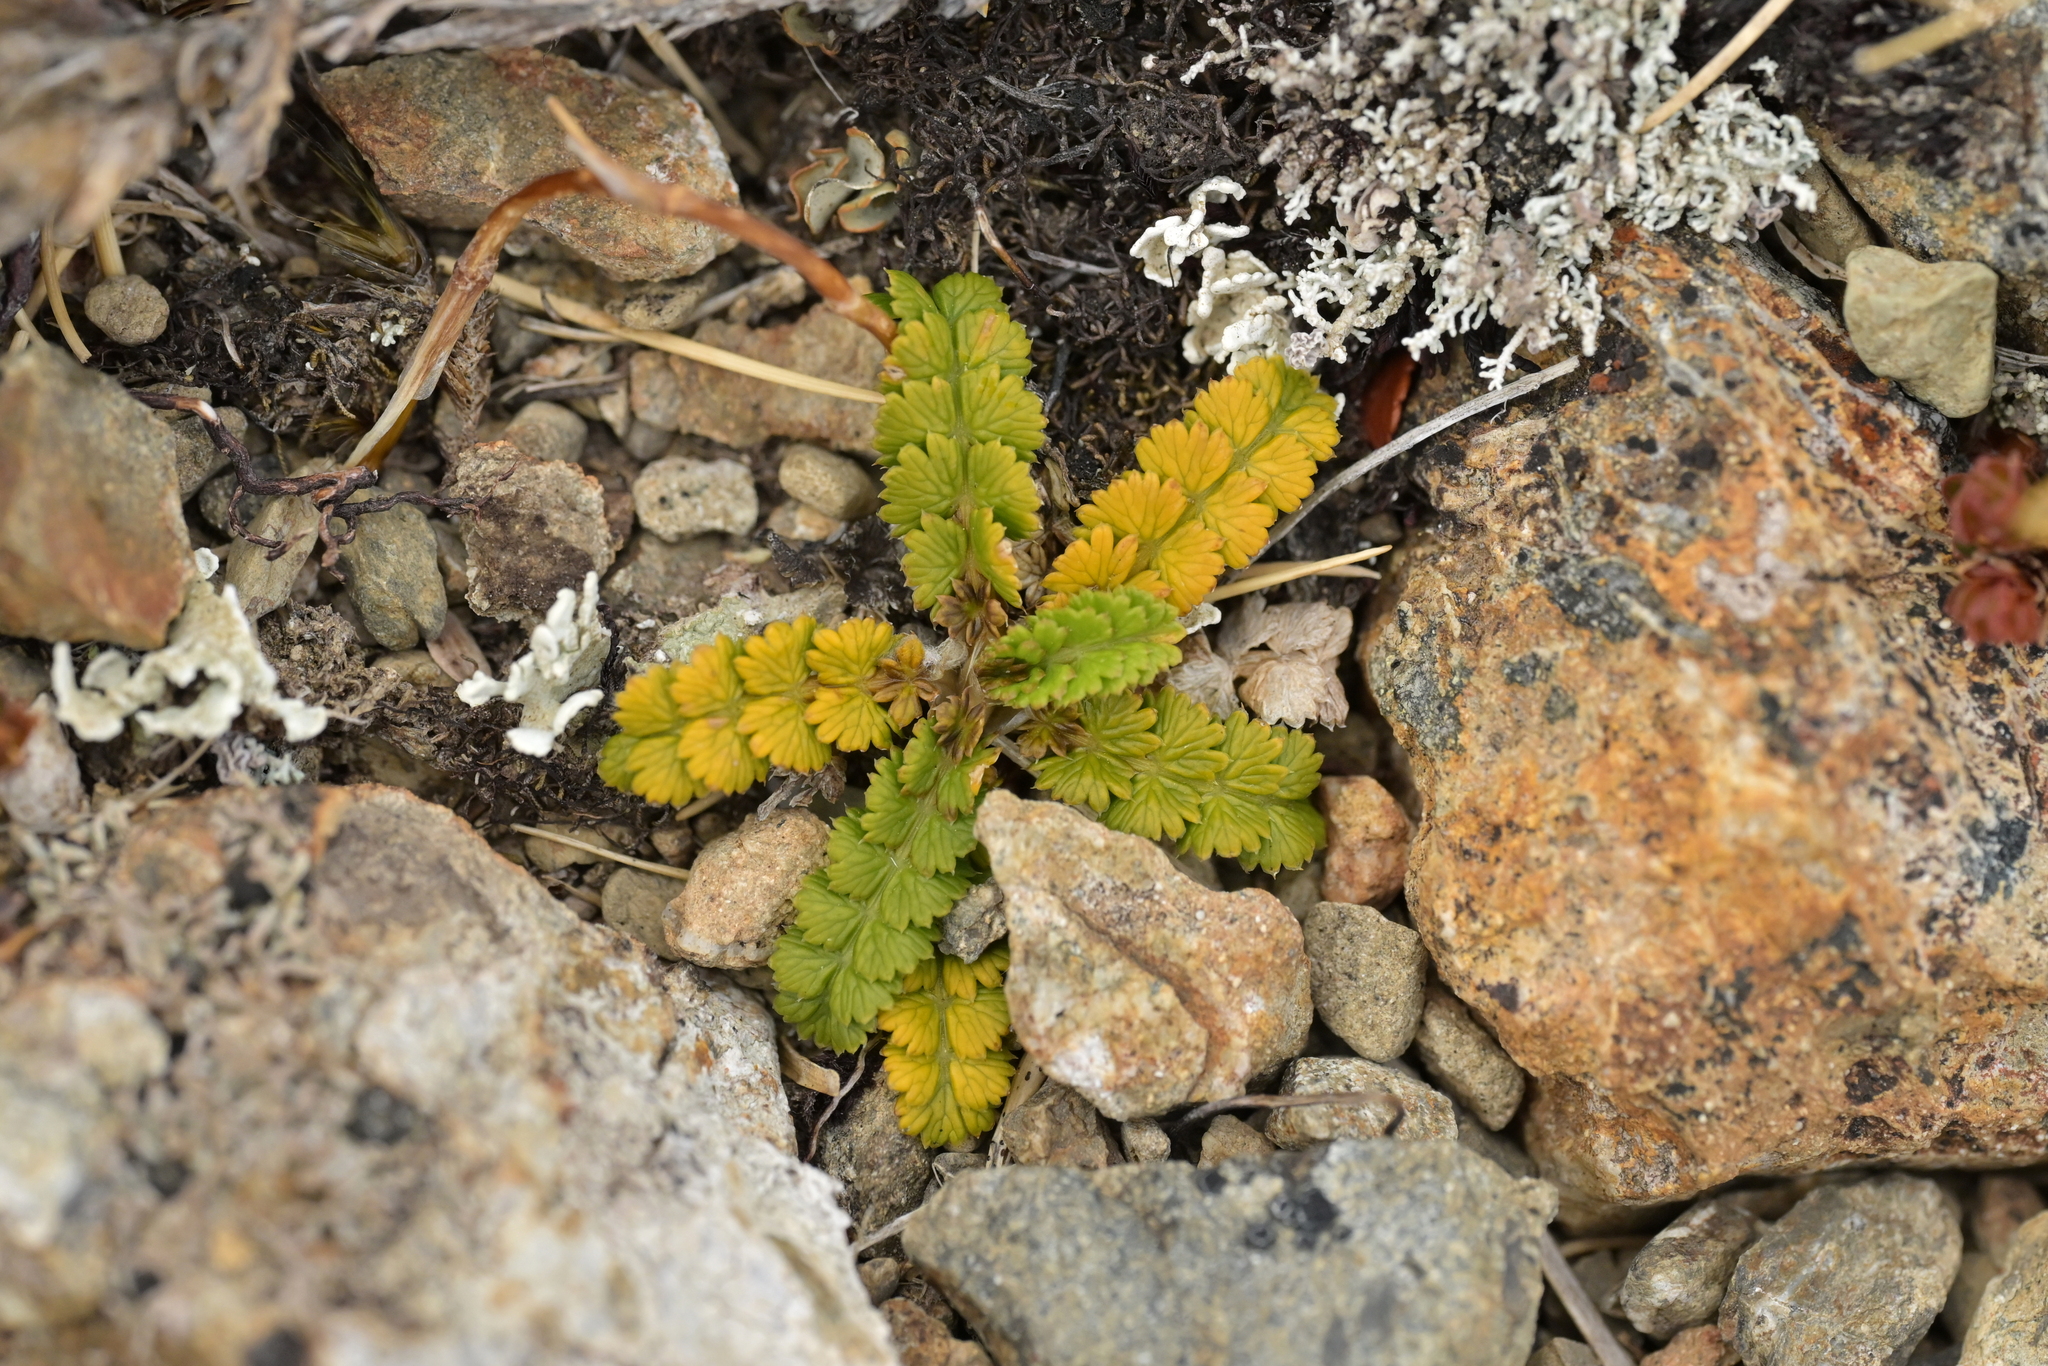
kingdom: Plantae
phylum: Tracheophyta
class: Magnoliopsida
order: Apiales
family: Apiaceae
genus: Anisotome
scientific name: Anisotome aromatica
